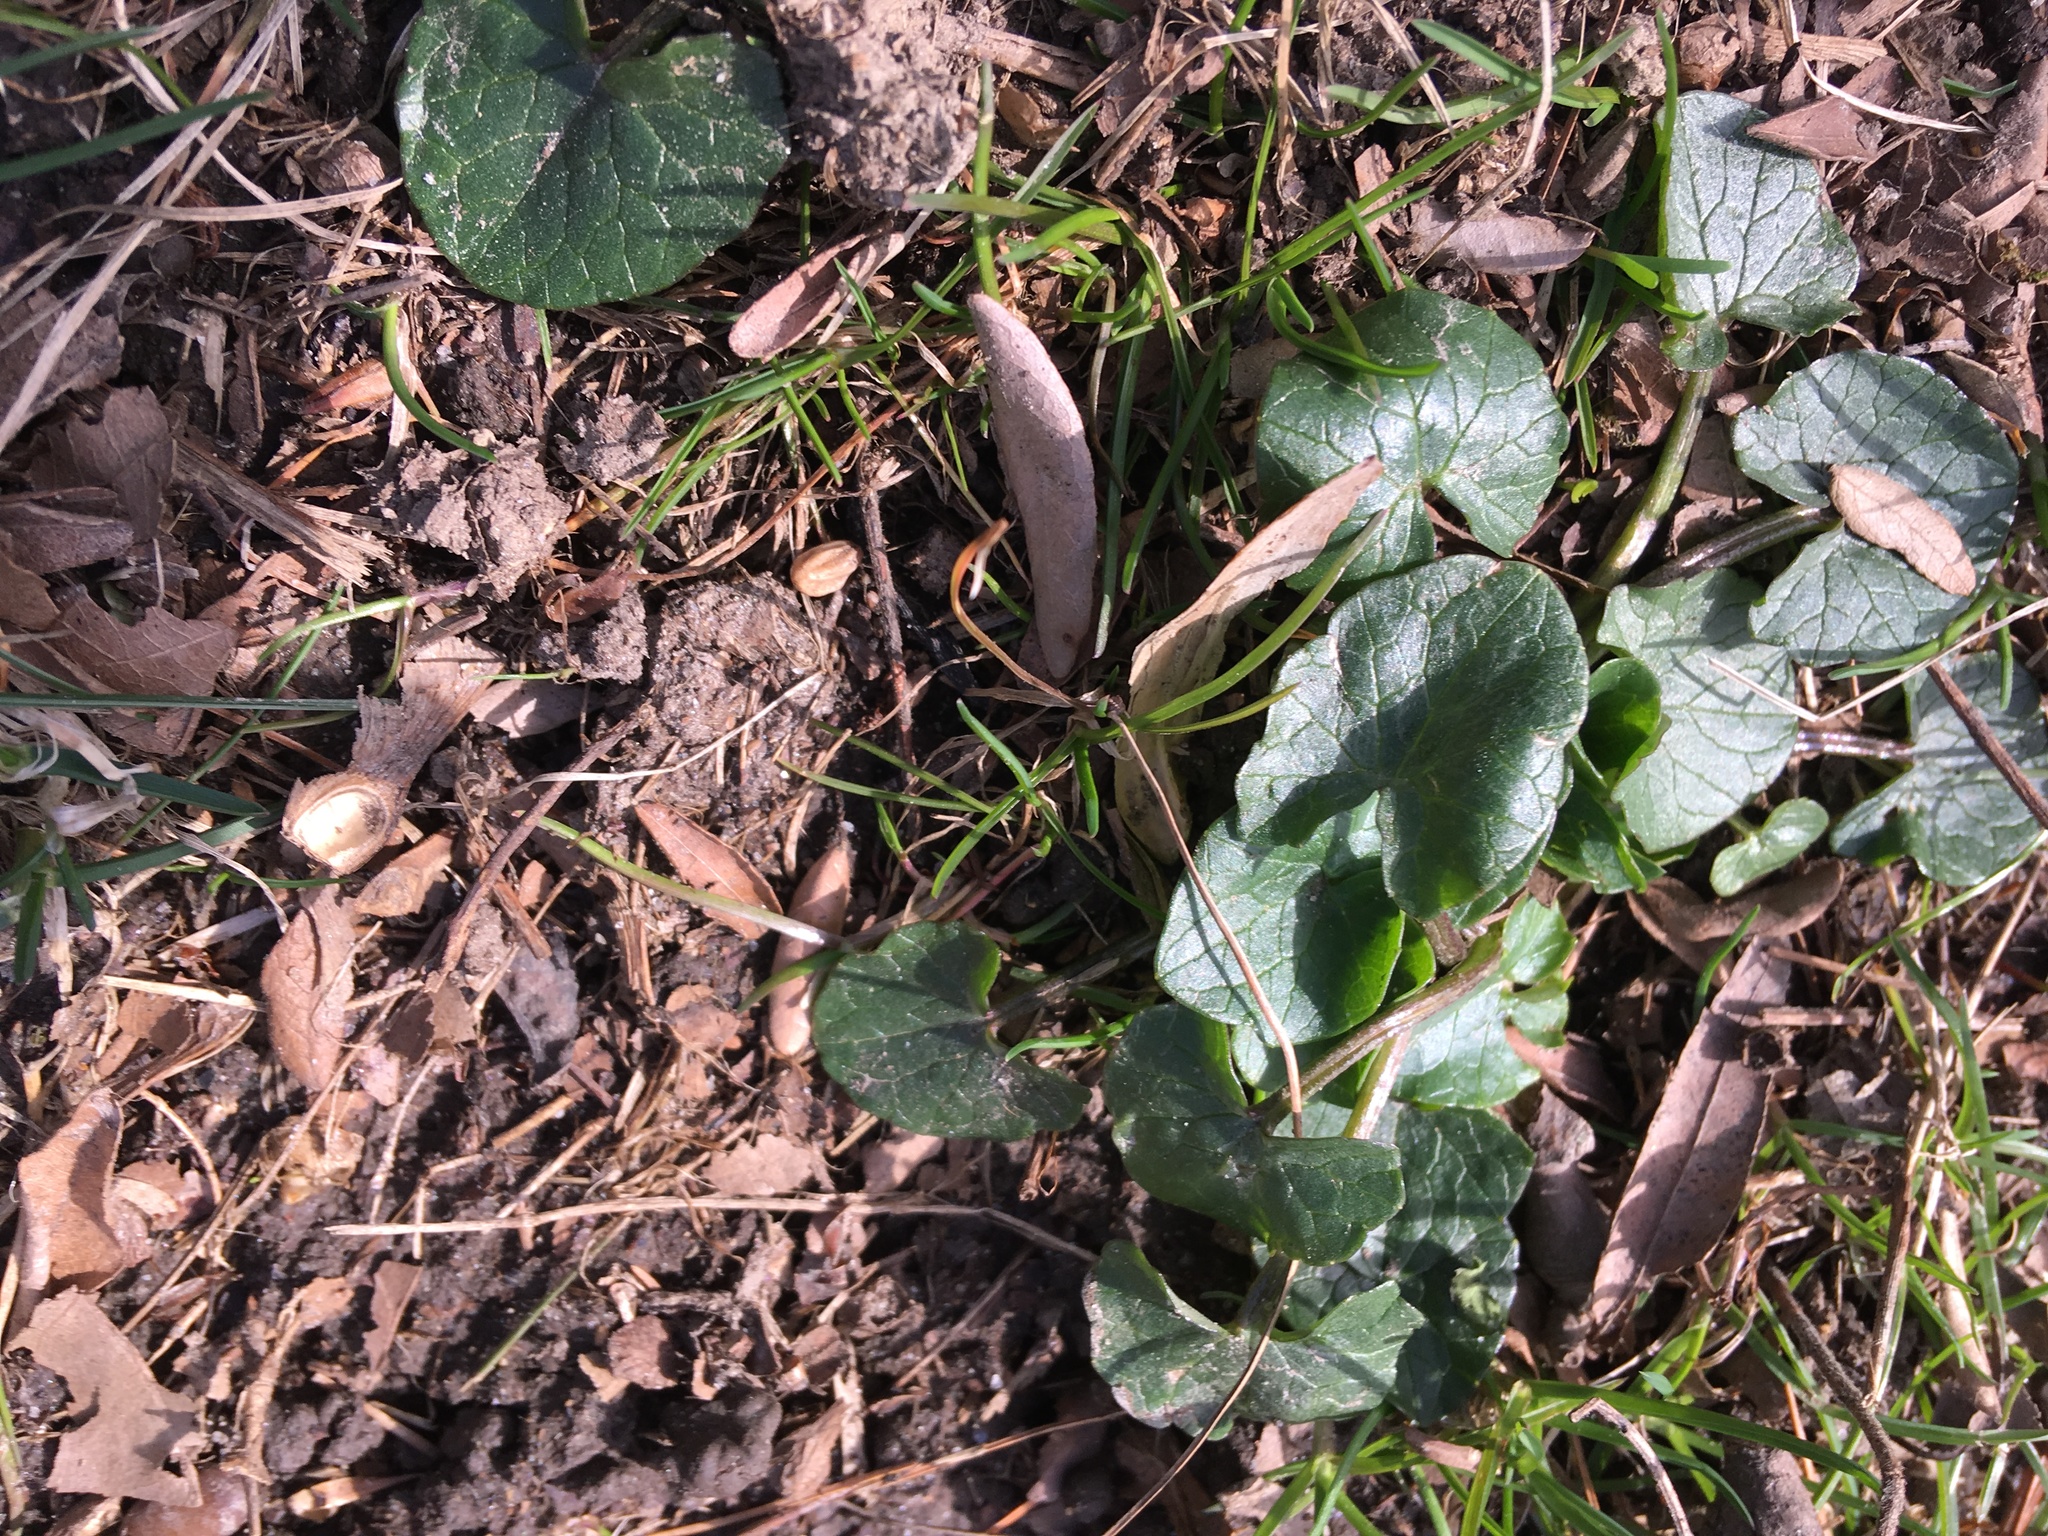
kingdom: Plantae
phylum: Tracheophyta
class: Magnoliopsida
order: Ranunculales
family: Ranunculaceae
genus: Ficaria
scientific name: Ficaria verna
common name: Lesser celandine
